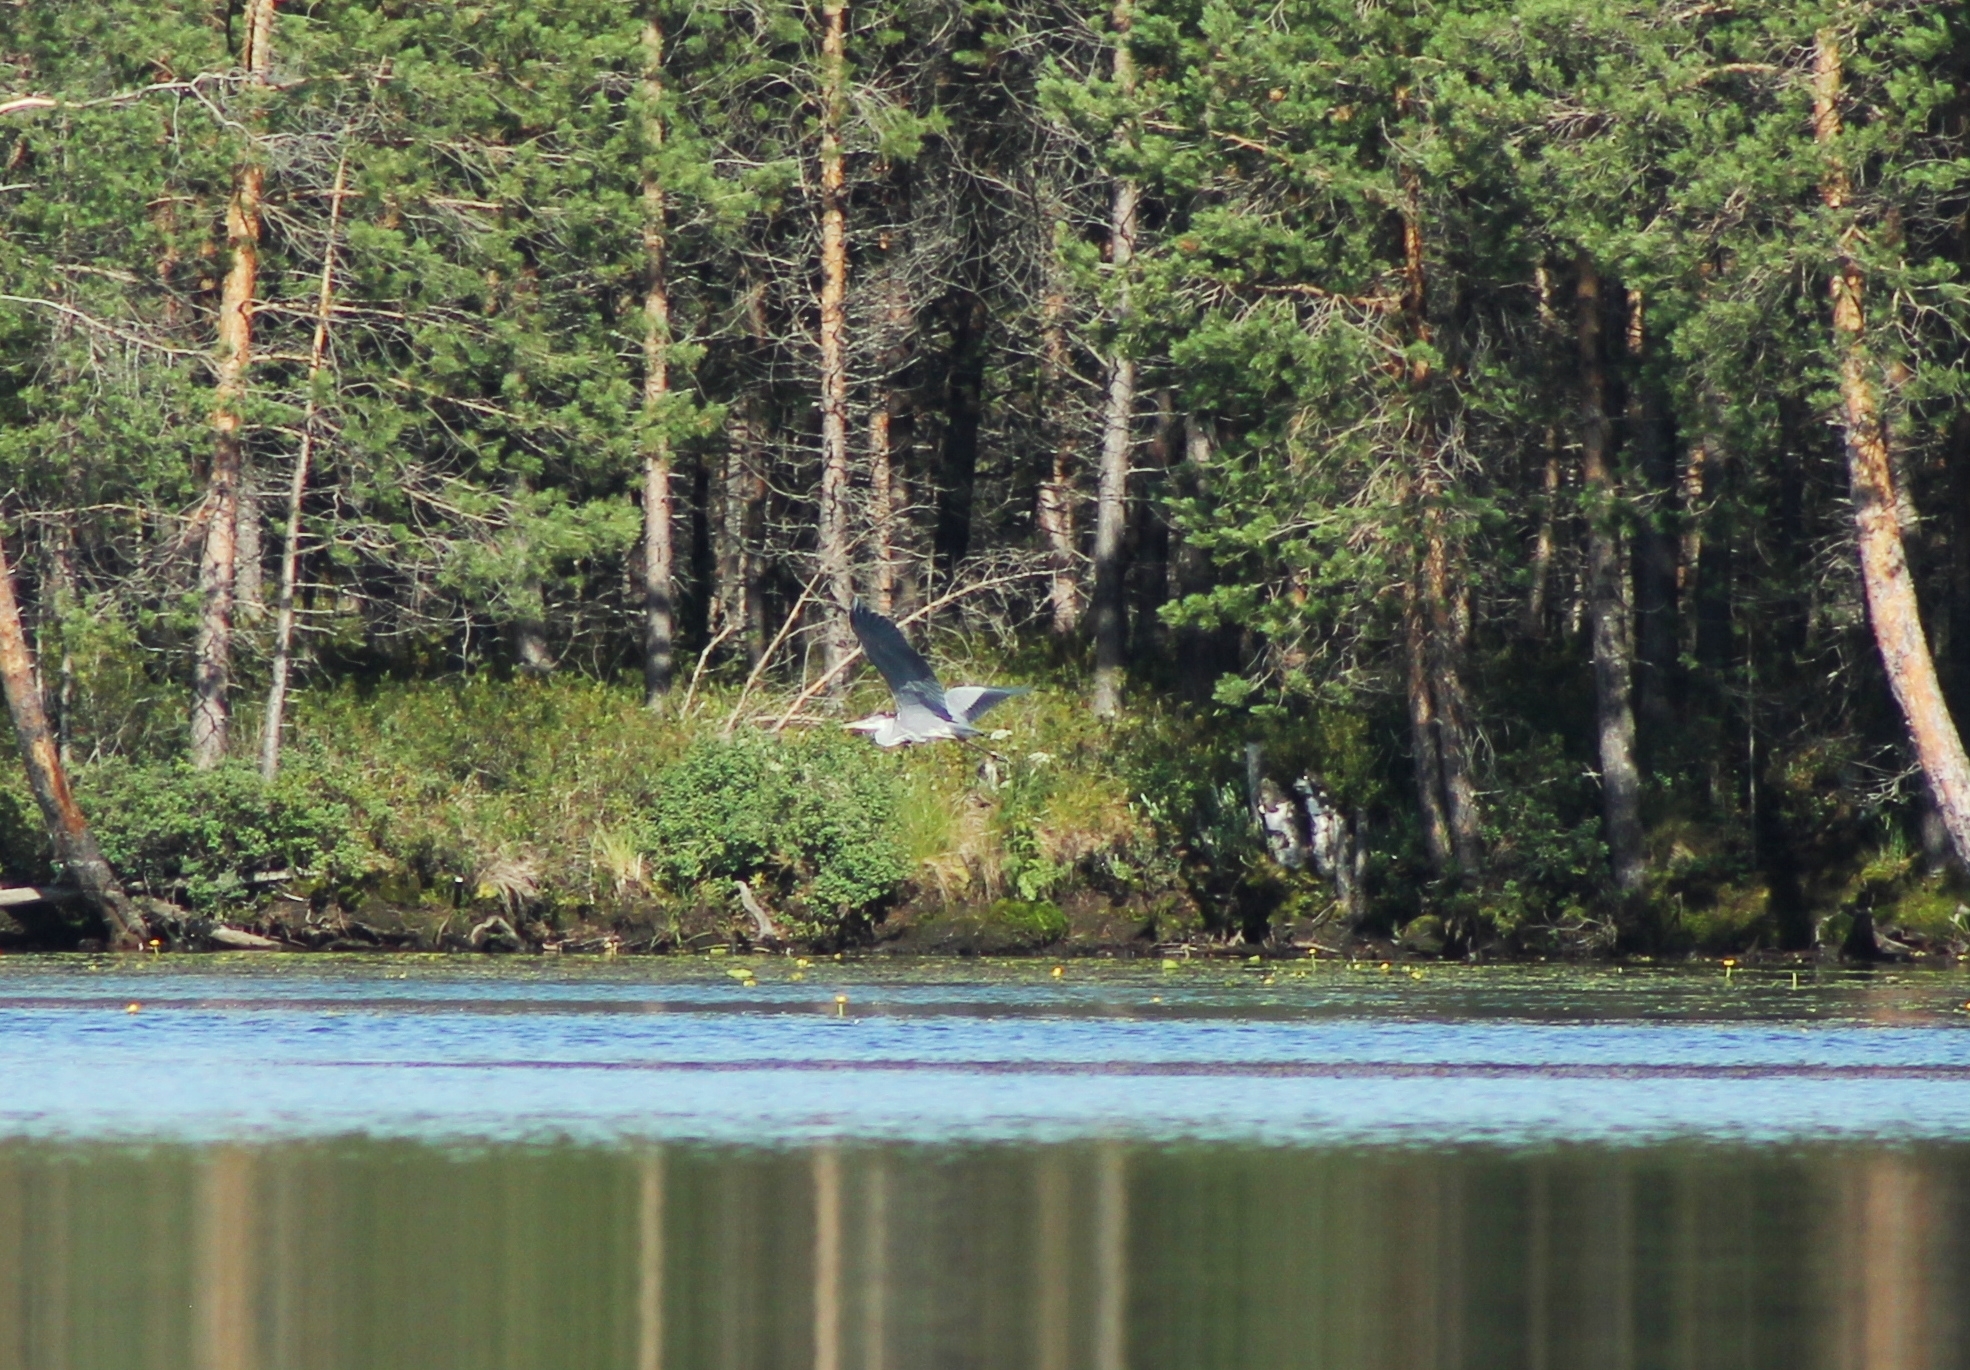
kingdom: Animalia
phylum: Chordata
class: Aves
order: Pelecaniformes
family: Ardeidae
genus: Ardea
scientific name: Ardea cinerea
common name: Grey heron
